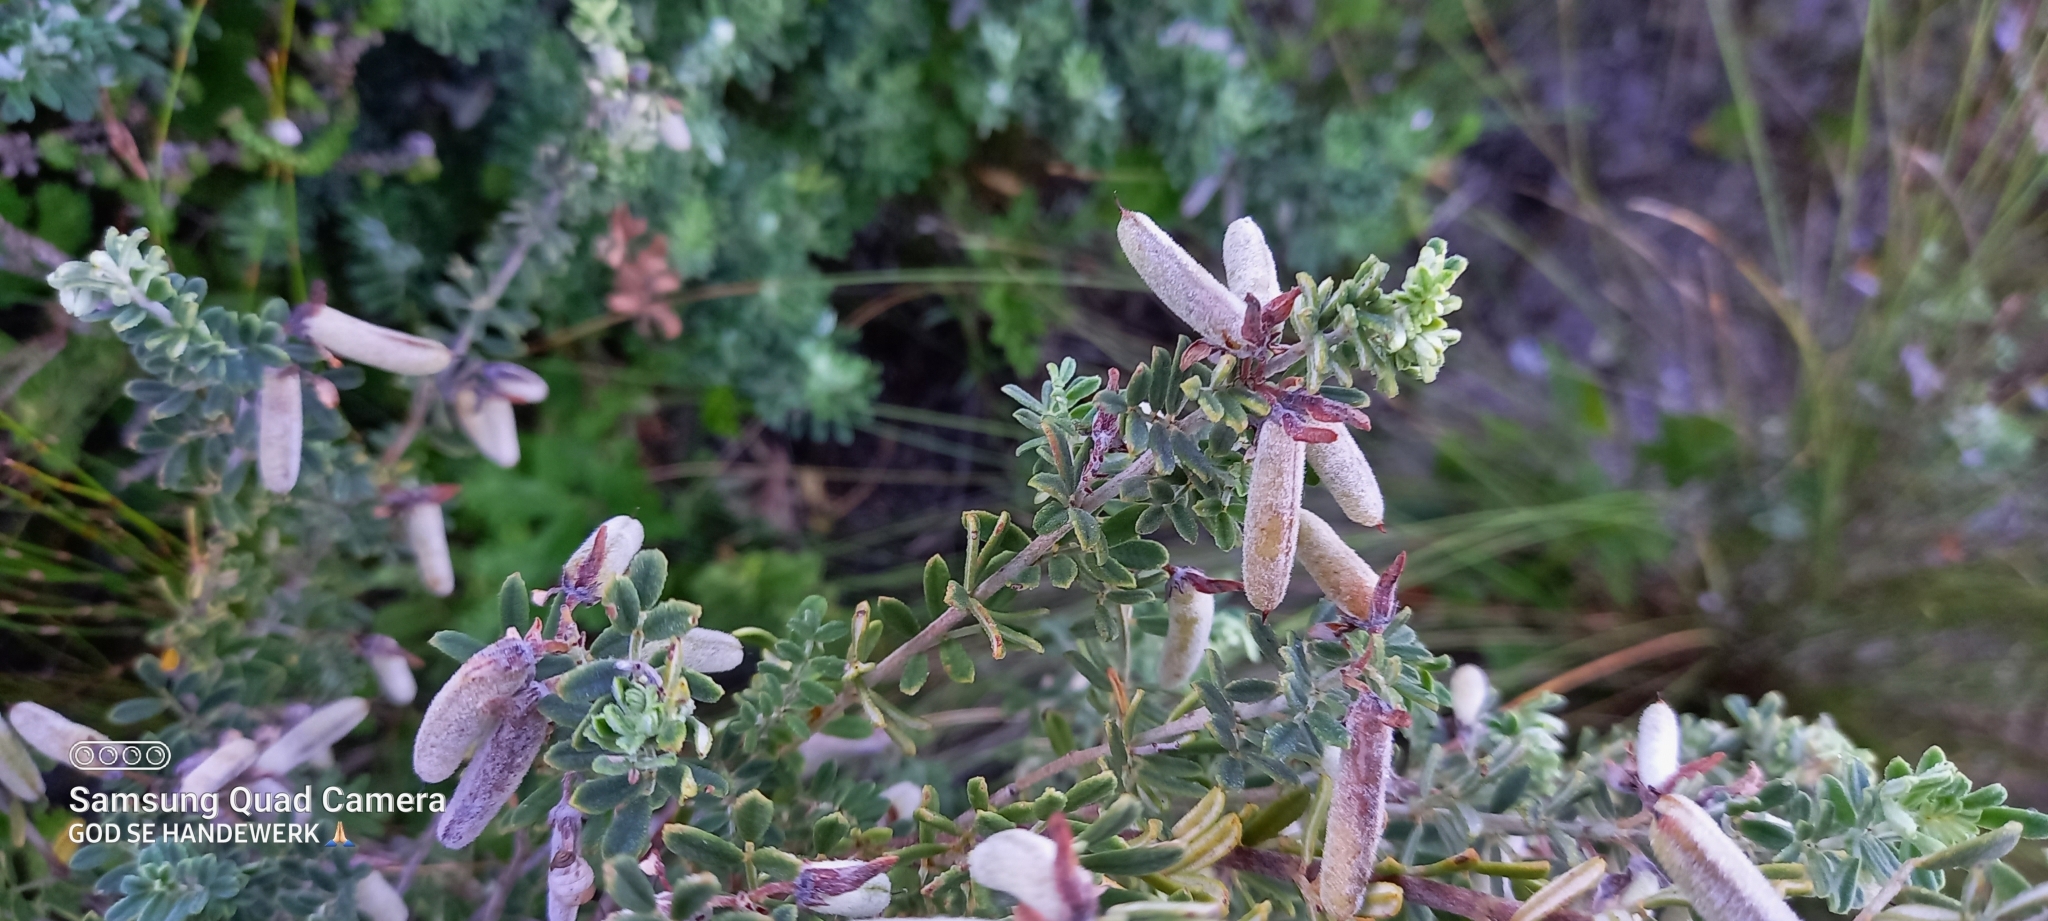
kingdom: Plantae
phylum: Tracheophyta
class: Magnoliopsida
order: Fabales
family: Fabaceae
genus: Indigofera
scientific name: Indigofera brachystachya
